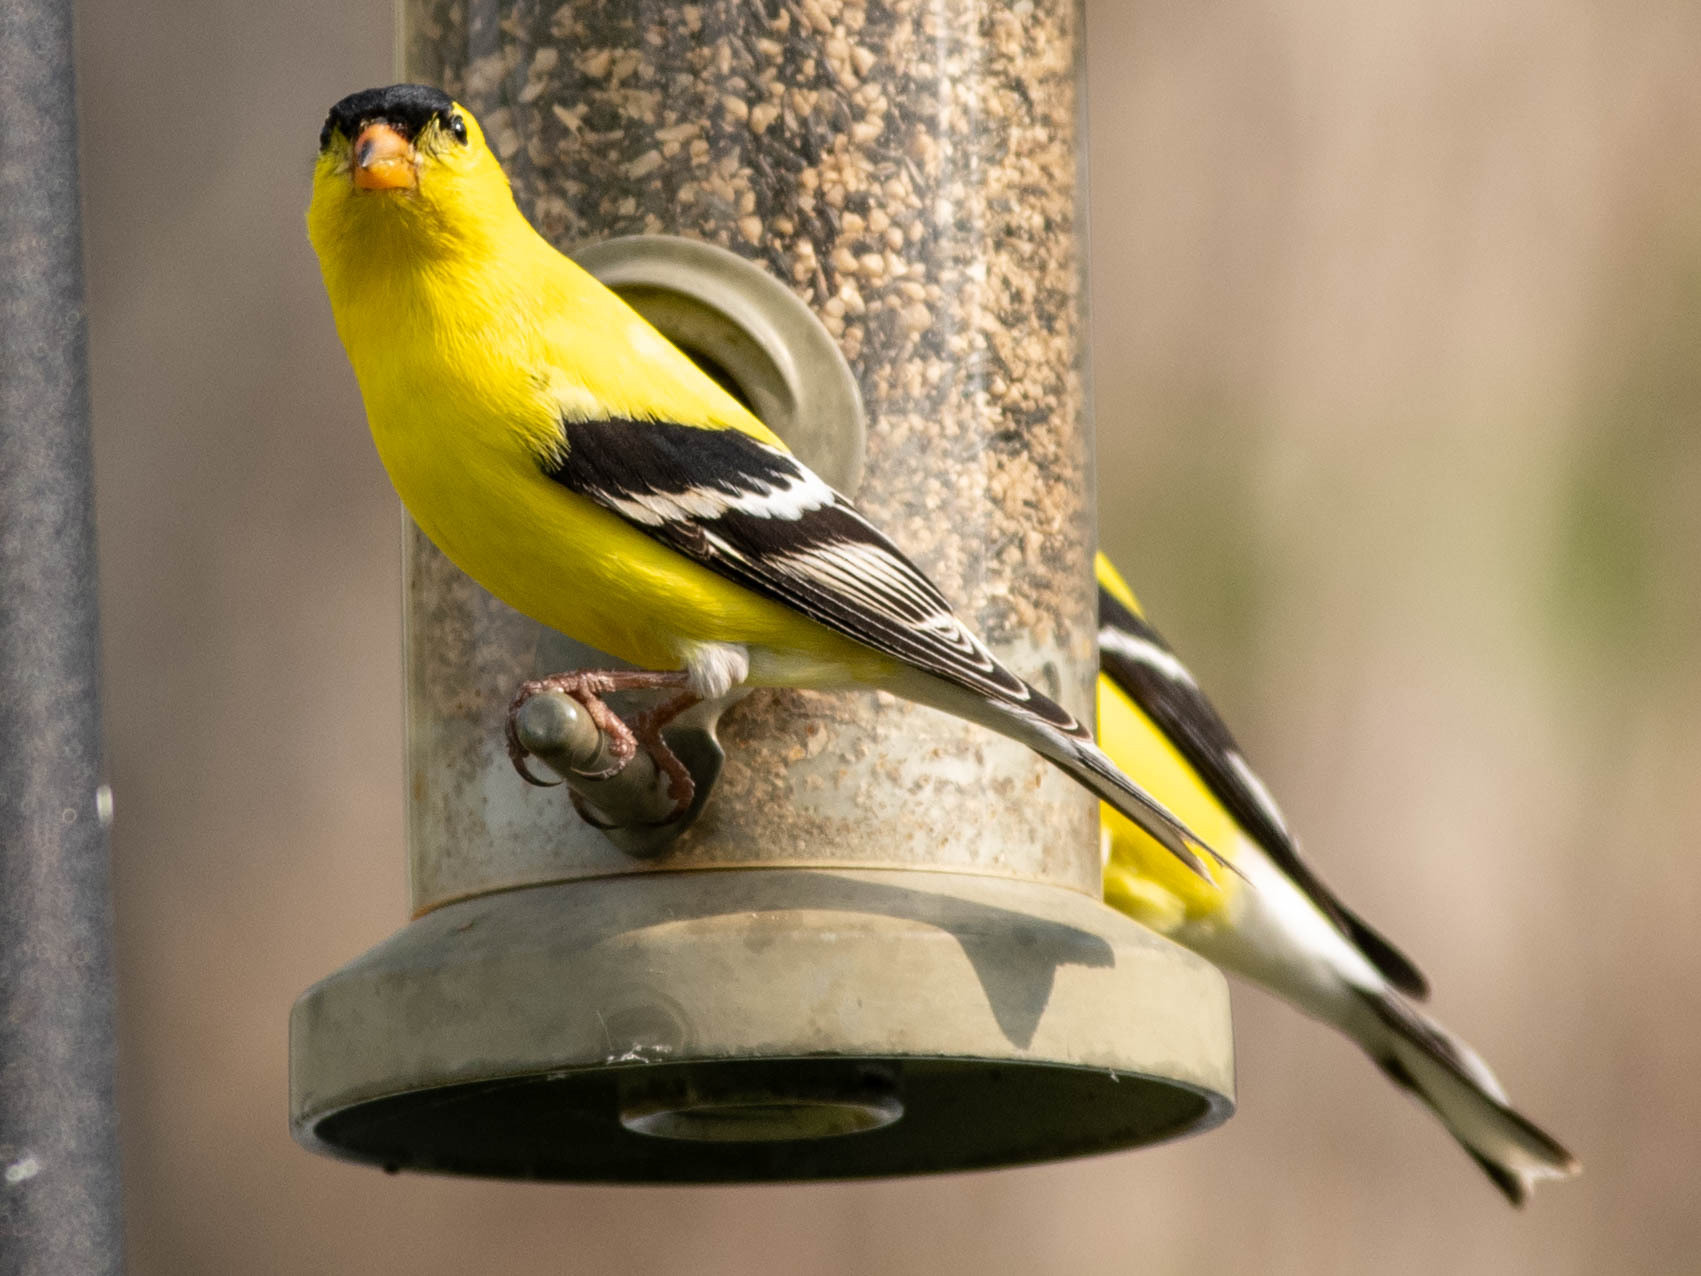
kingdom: Animalia
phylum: Chordata
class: Aves
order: Passeriformes
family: Fringillidae
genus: Spinus
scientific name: Spinus tristis
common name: American goldfinch
